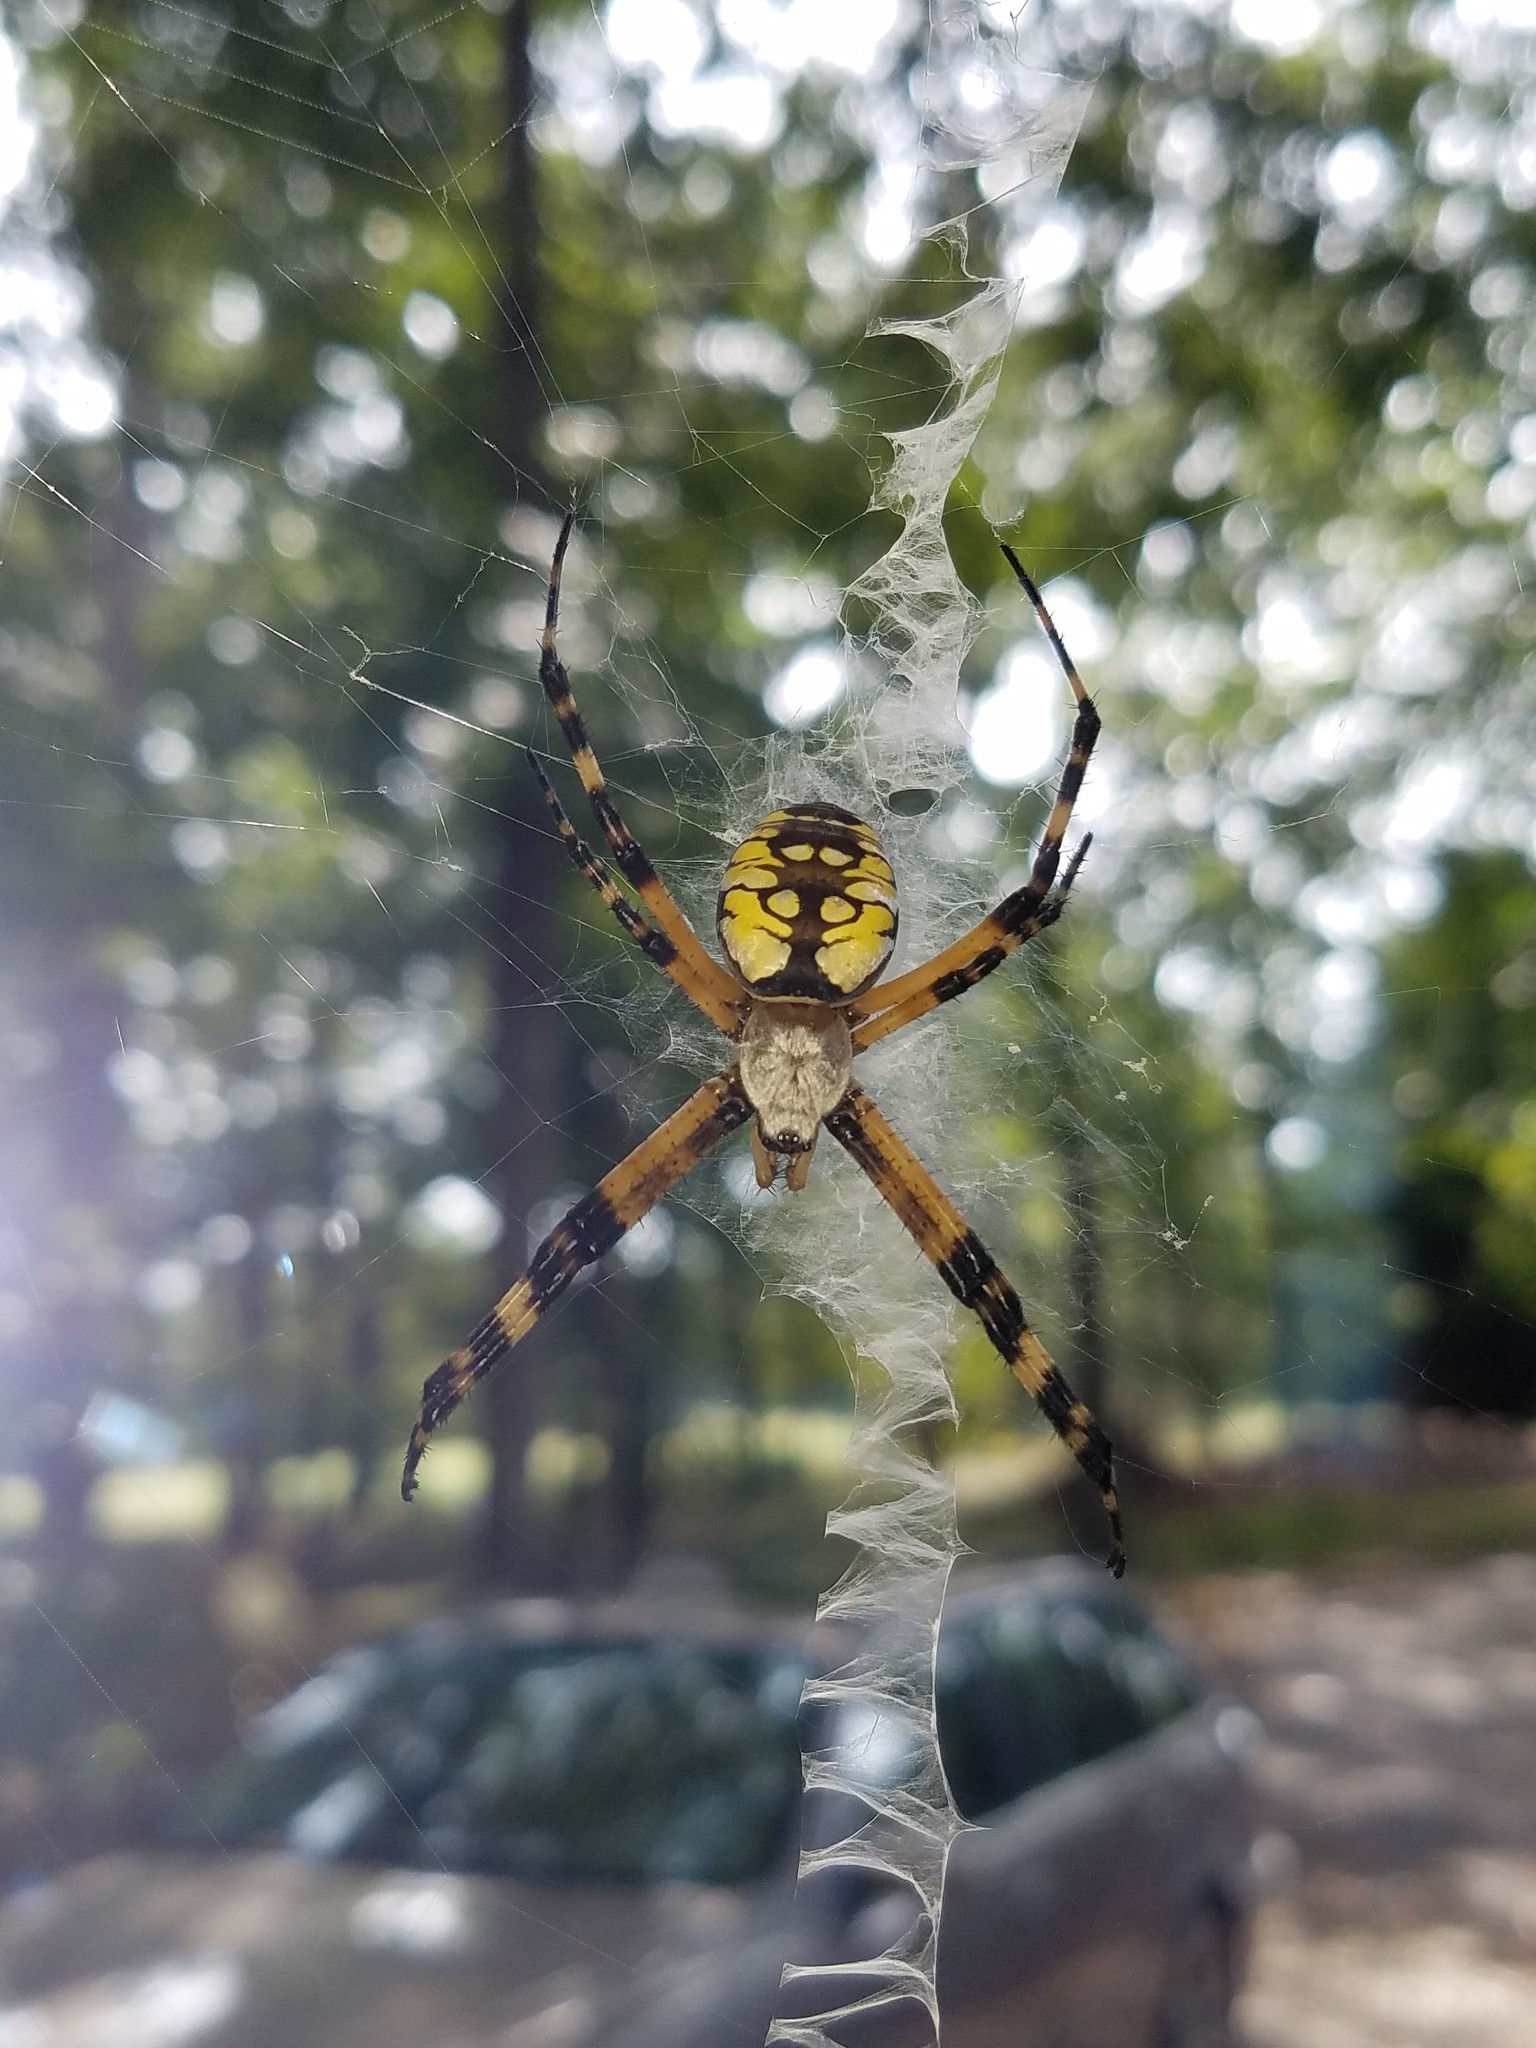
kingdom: Animalia
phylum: Arthropoda
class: Arachnida
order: Araneae
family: Araneidae
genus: Argiope
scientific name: Argiope aurantia
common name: Orb weavers
